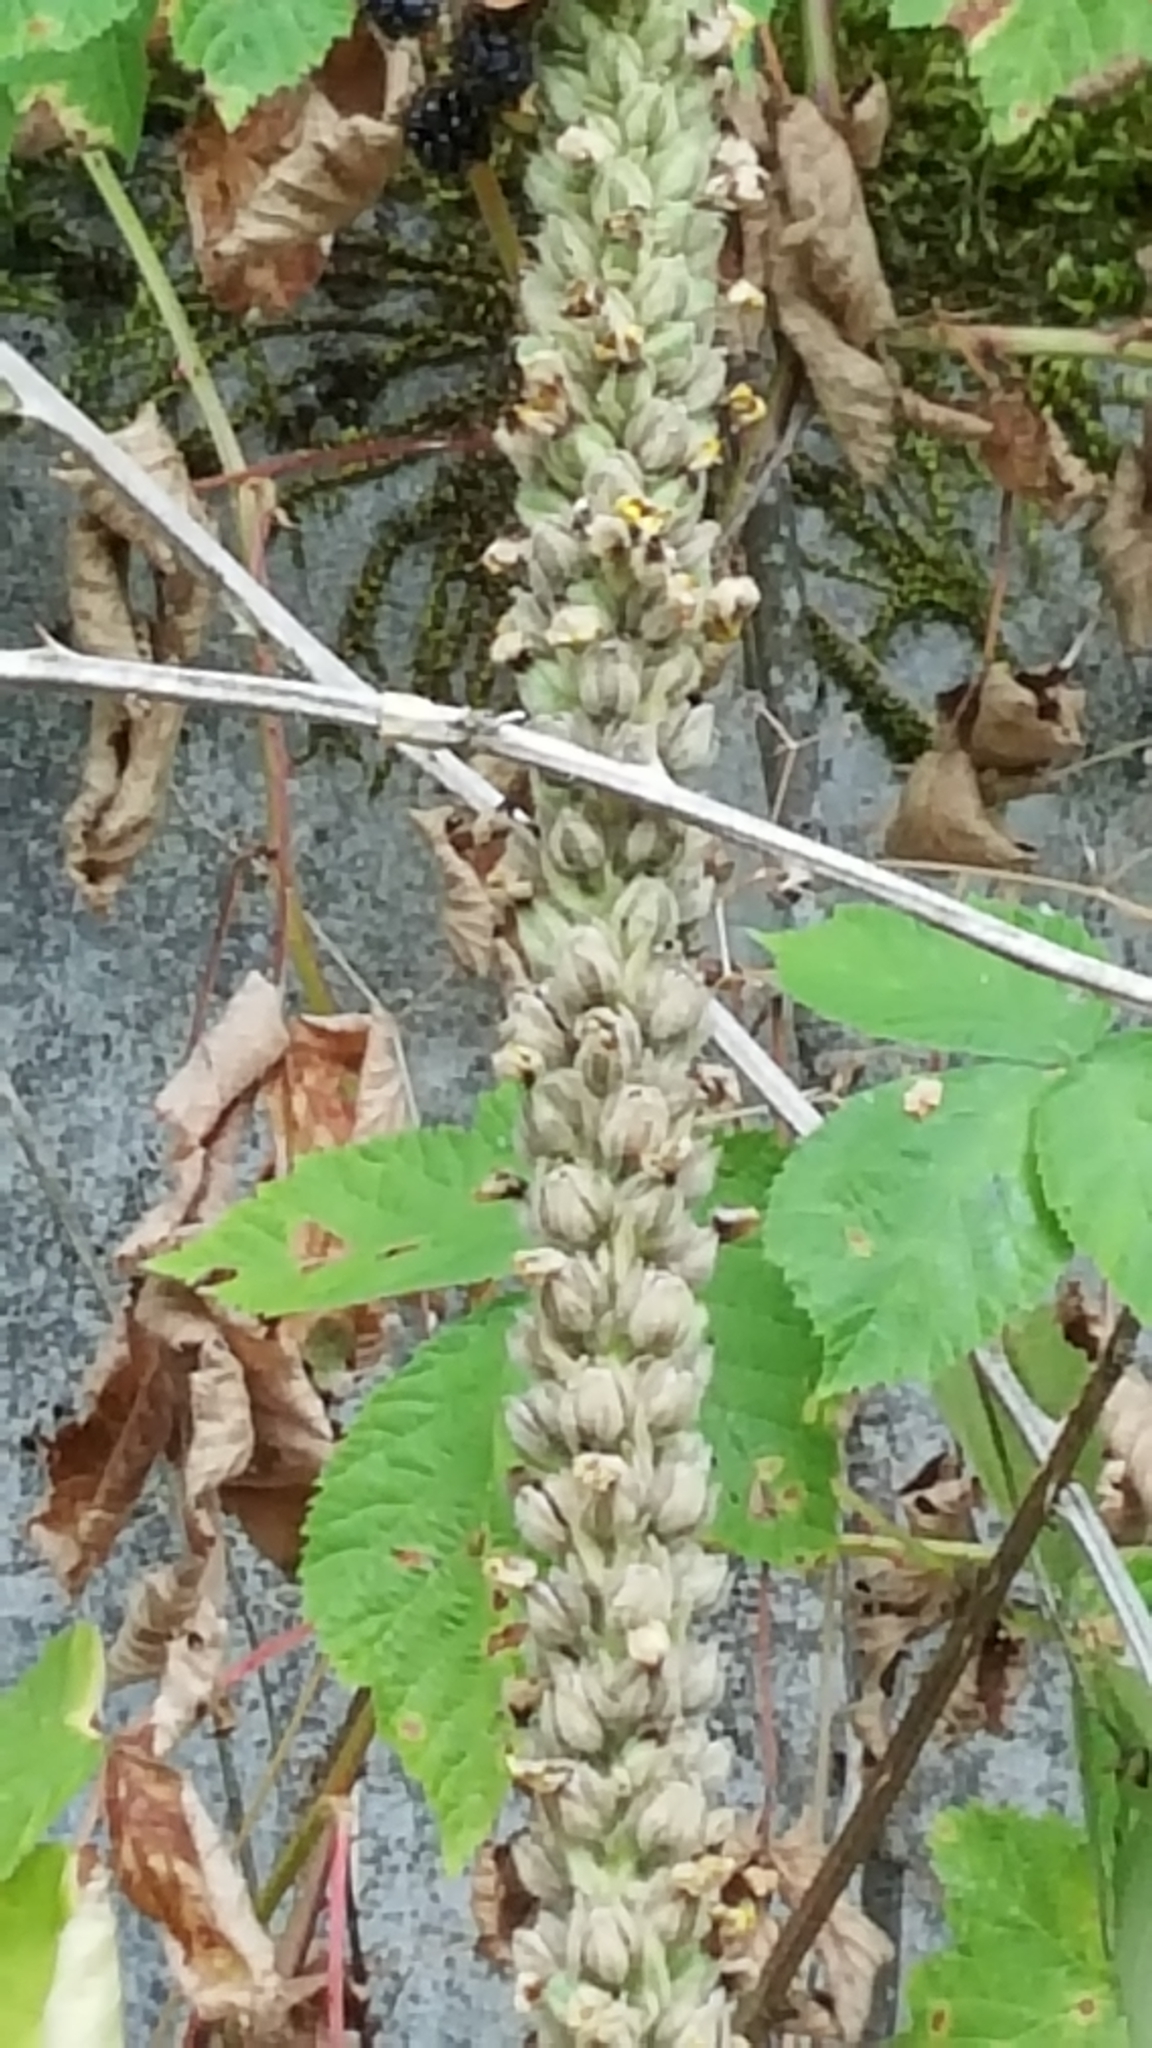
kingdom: Plantae
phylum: Tracheophyta
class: Magnoliopsida
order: Lamiales
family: Scrophulariaceae
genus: Verbascum
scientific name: Verbascum thapsus
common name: Common mullein
